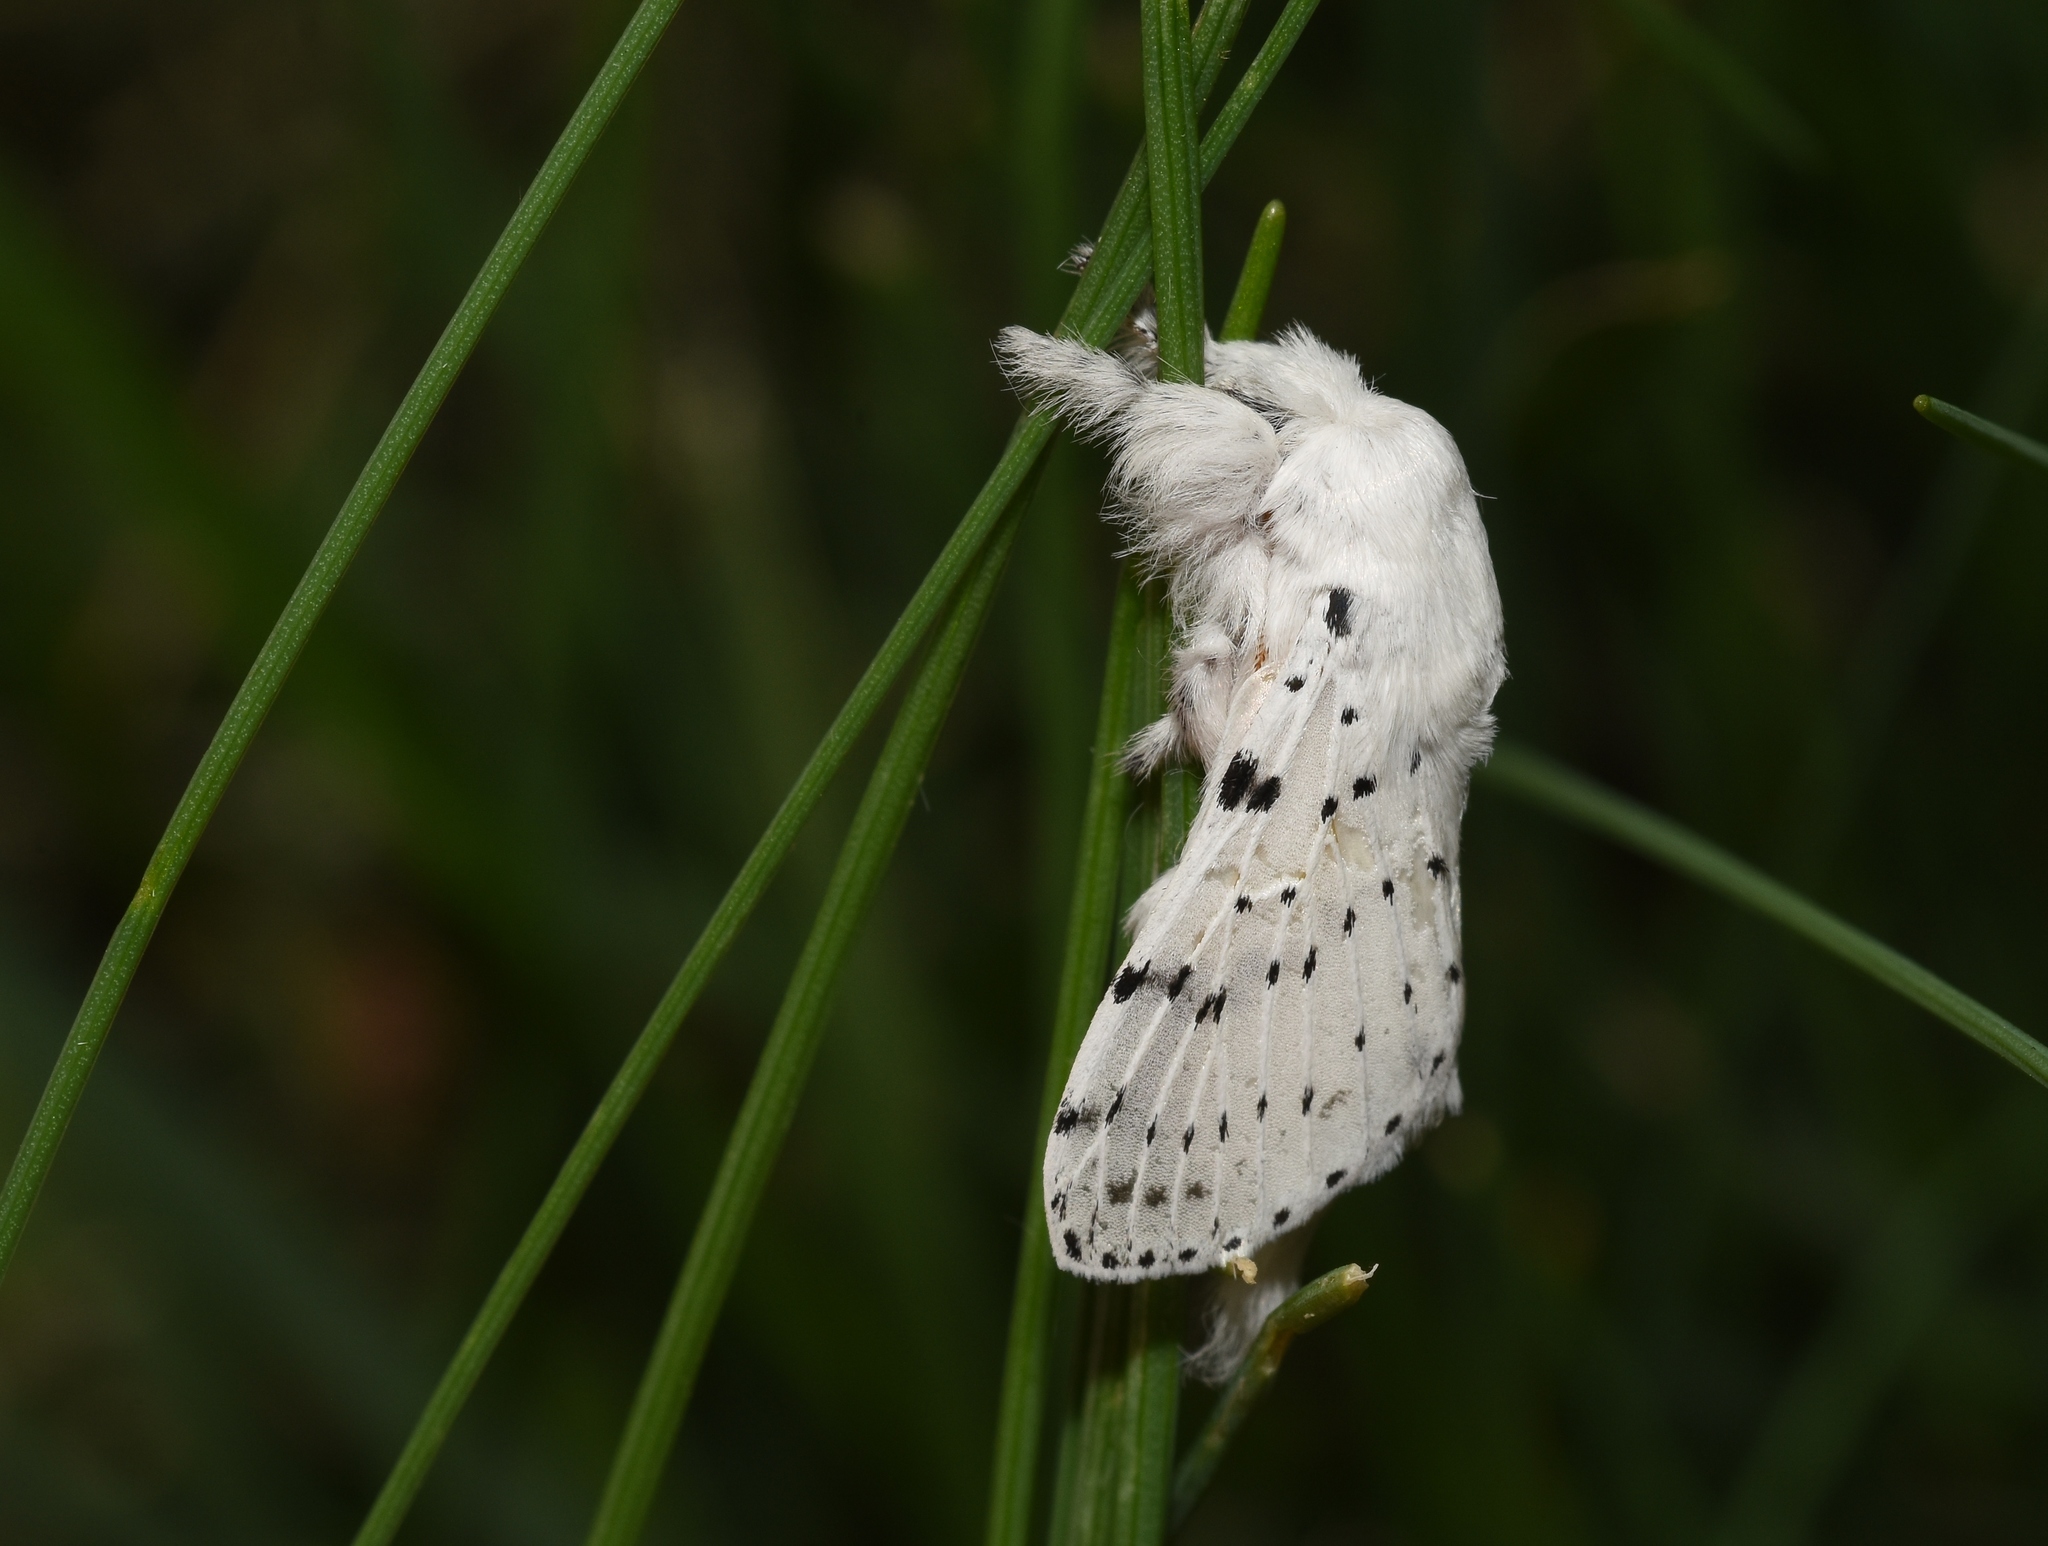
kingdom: Animalia
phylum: Arthropoda
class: Insecta
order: Lepidoptera
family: Lasiocampidae
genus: Artace
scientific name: Artace cribrarius
